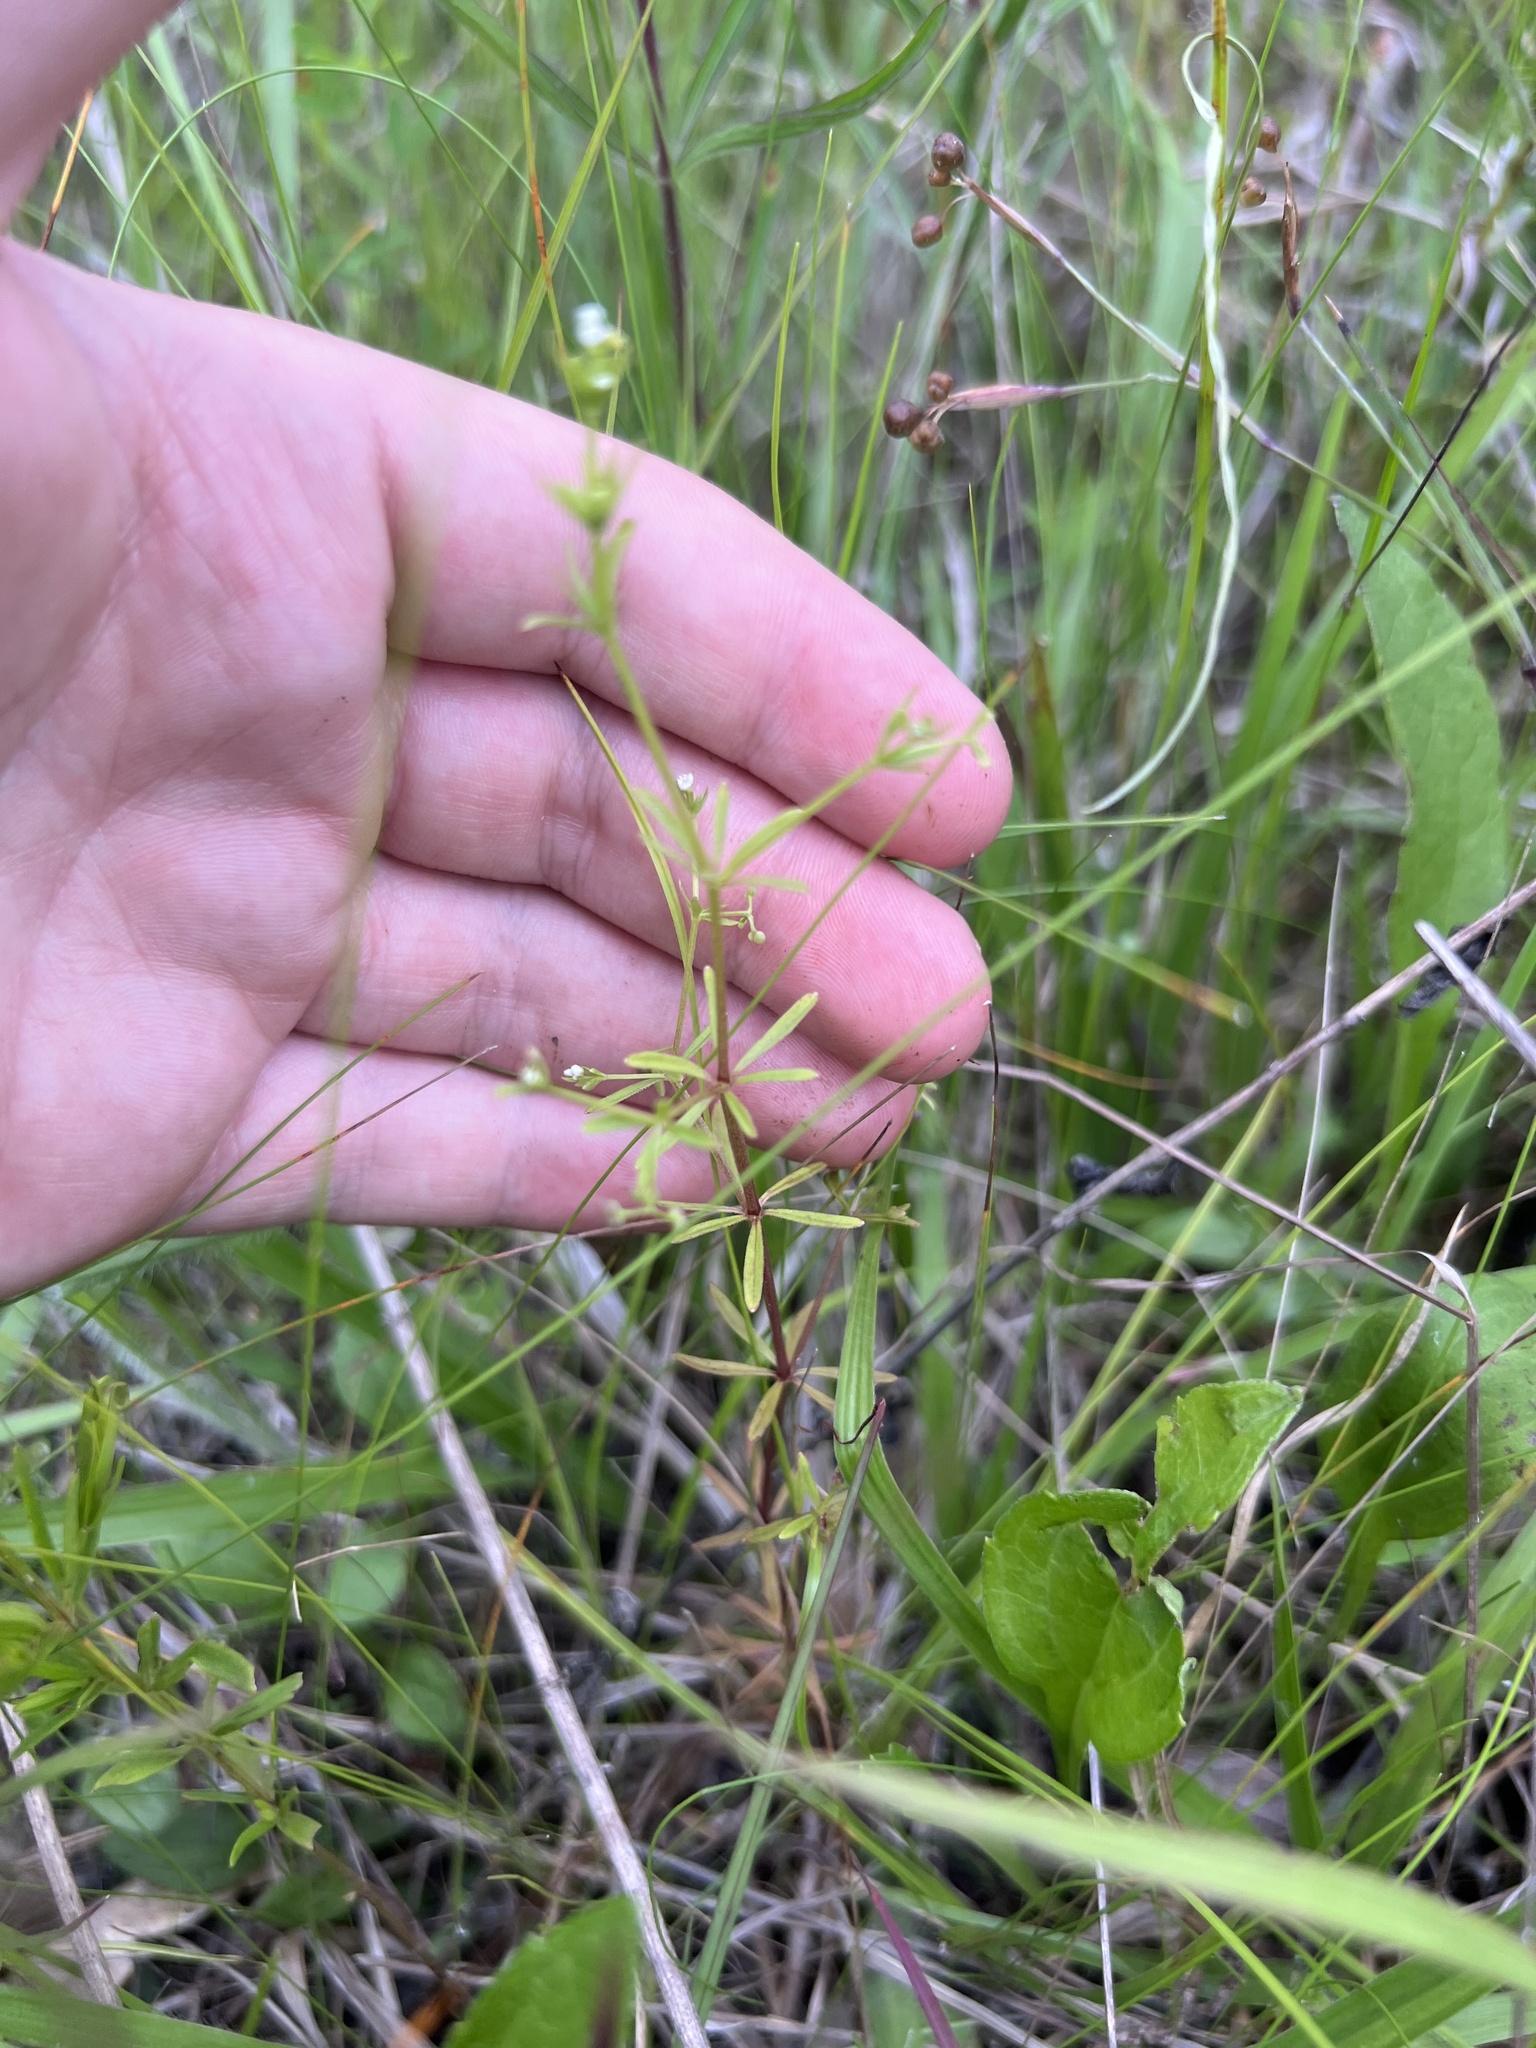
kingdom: Plantae
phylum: Tracheophyta
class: Magnoliopsida
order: Gentianales
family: Rubiaceae
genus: Galium
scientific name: Galium obtusum
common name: Blunt-leaved bedstraw
